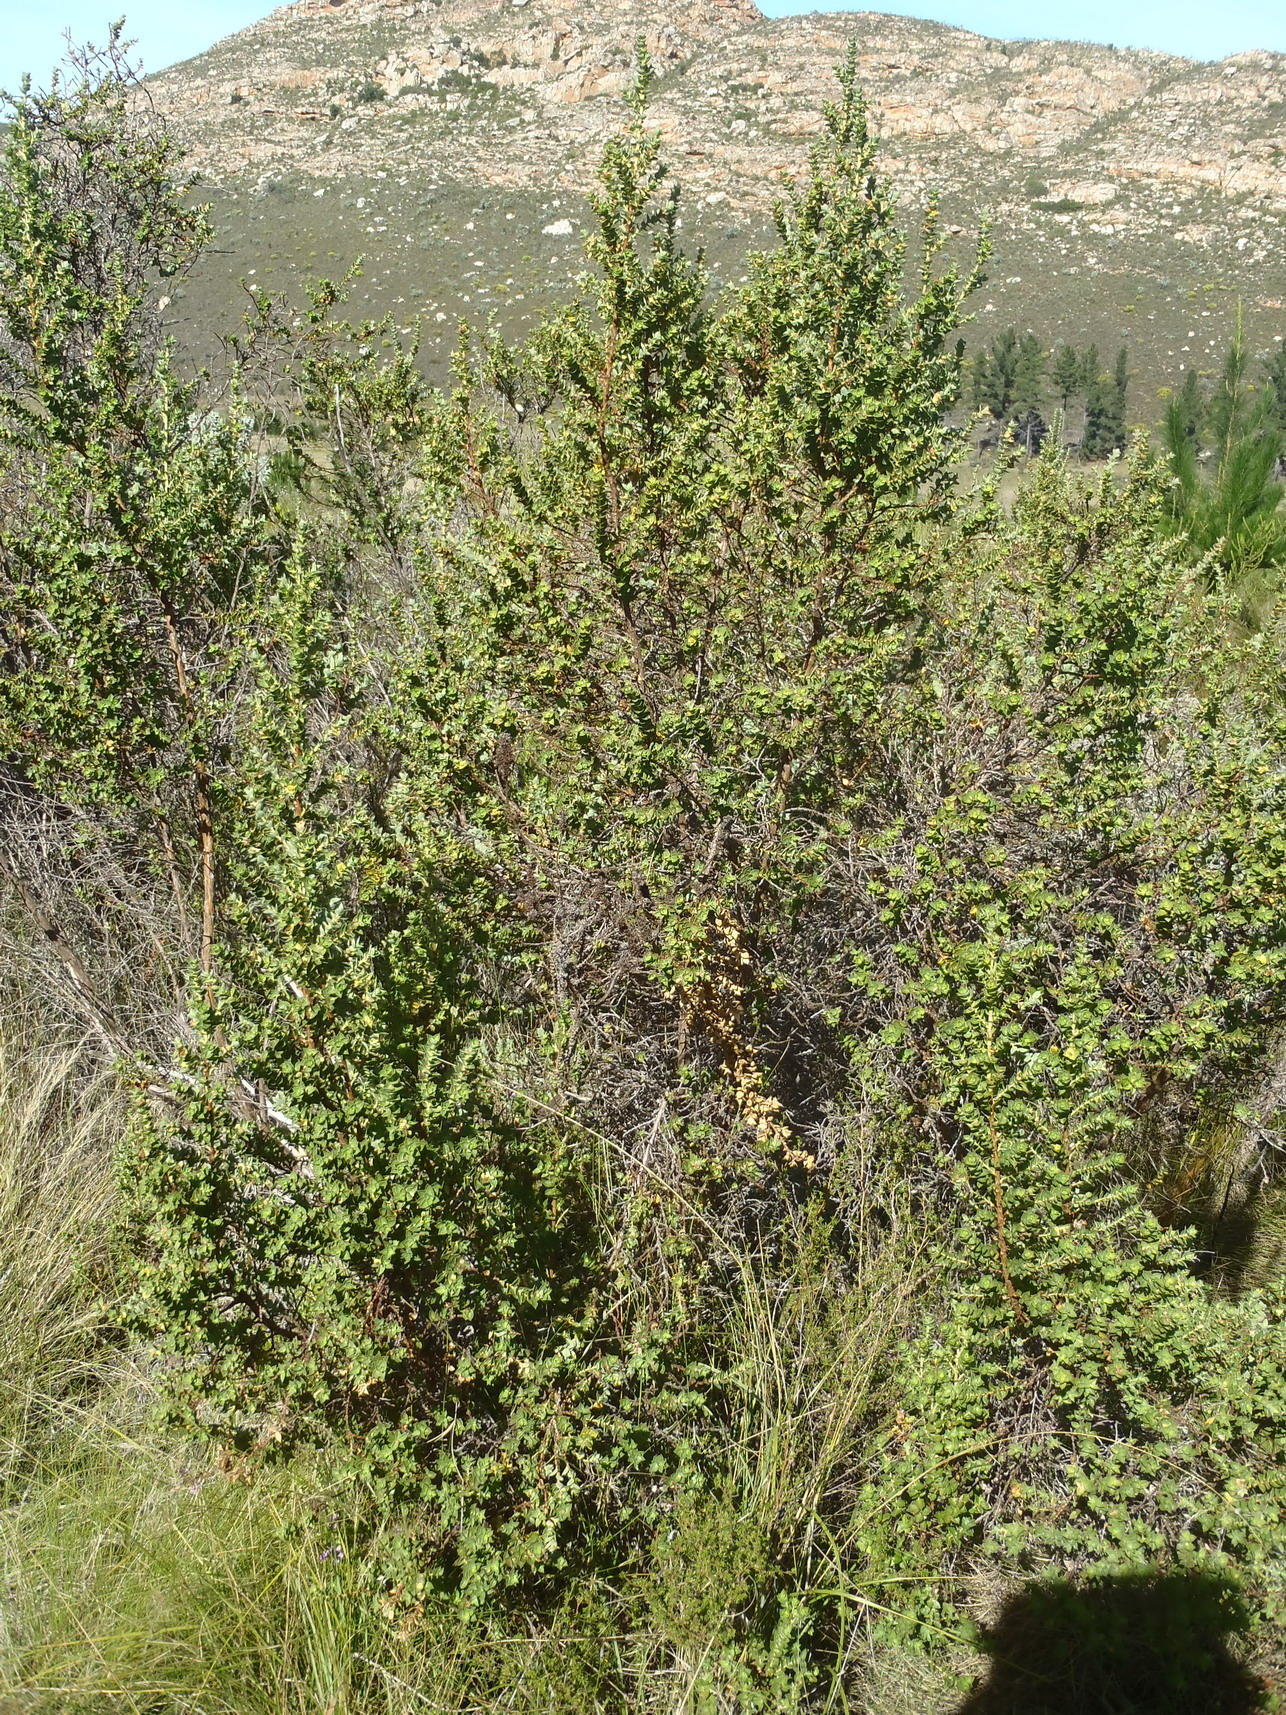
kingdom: Plantae
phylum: Tracheophyta
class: Magnoliopsida
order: Rosales
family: Rosaceae
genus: Cliffortia
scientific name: Cliffortia ilicifolia
